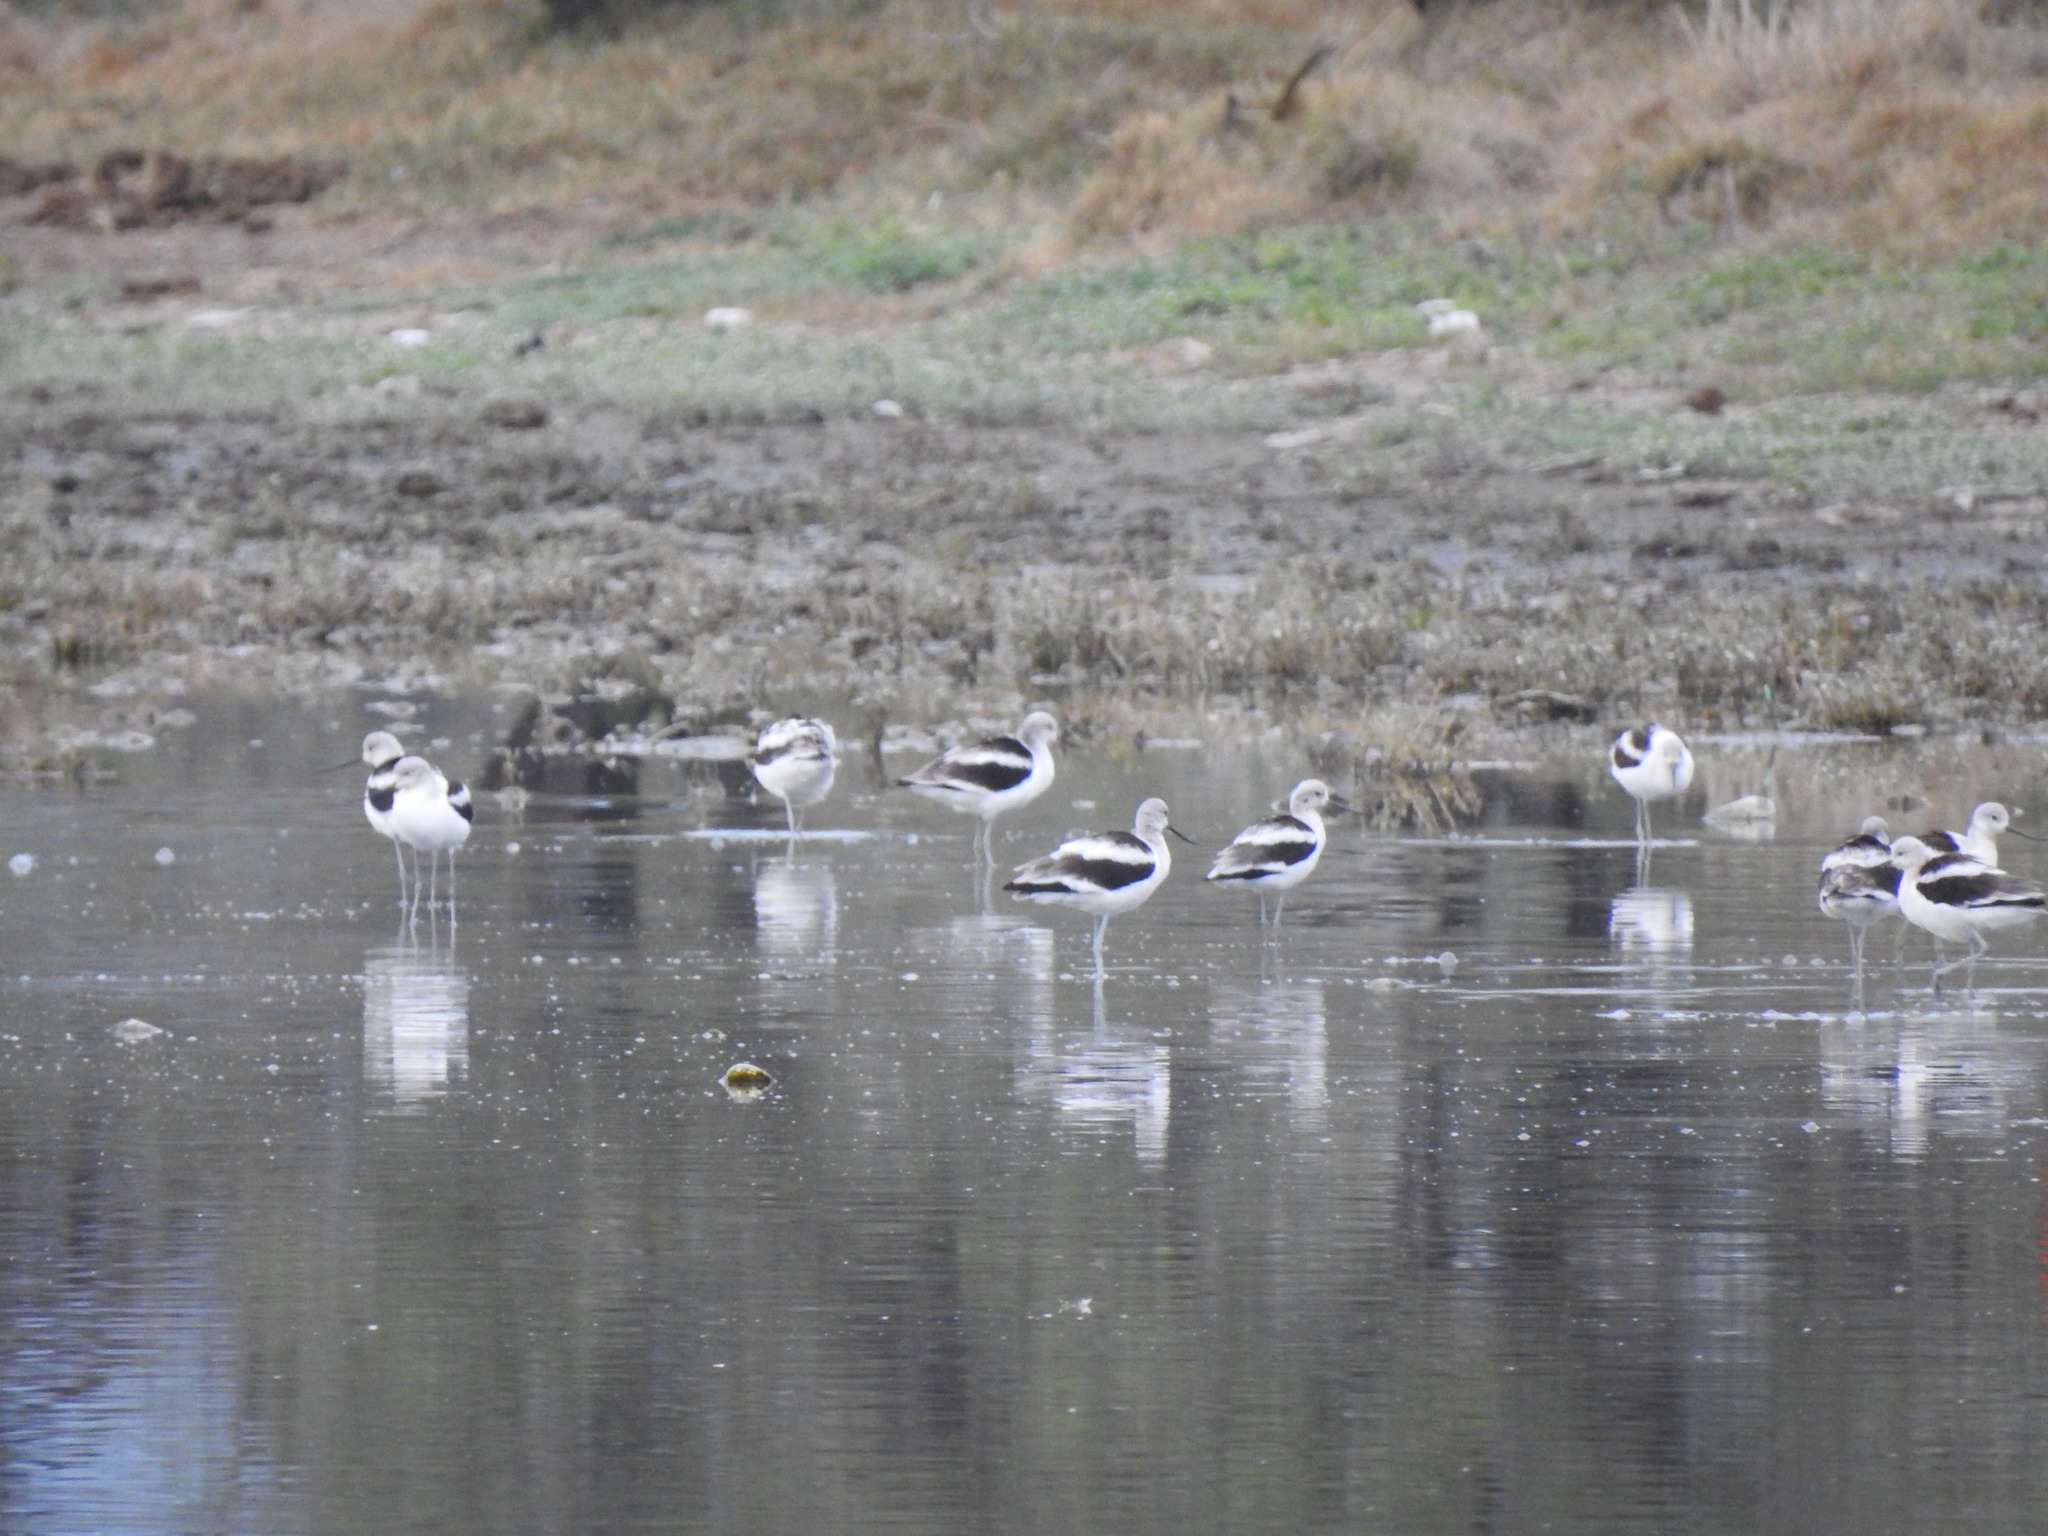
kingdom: Animalia
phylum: Chordata
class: Aves
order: Charadriiformes
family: Recurvirostridae
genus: Recurvirostra
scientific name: Recurvirostra americana
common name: American avocet
